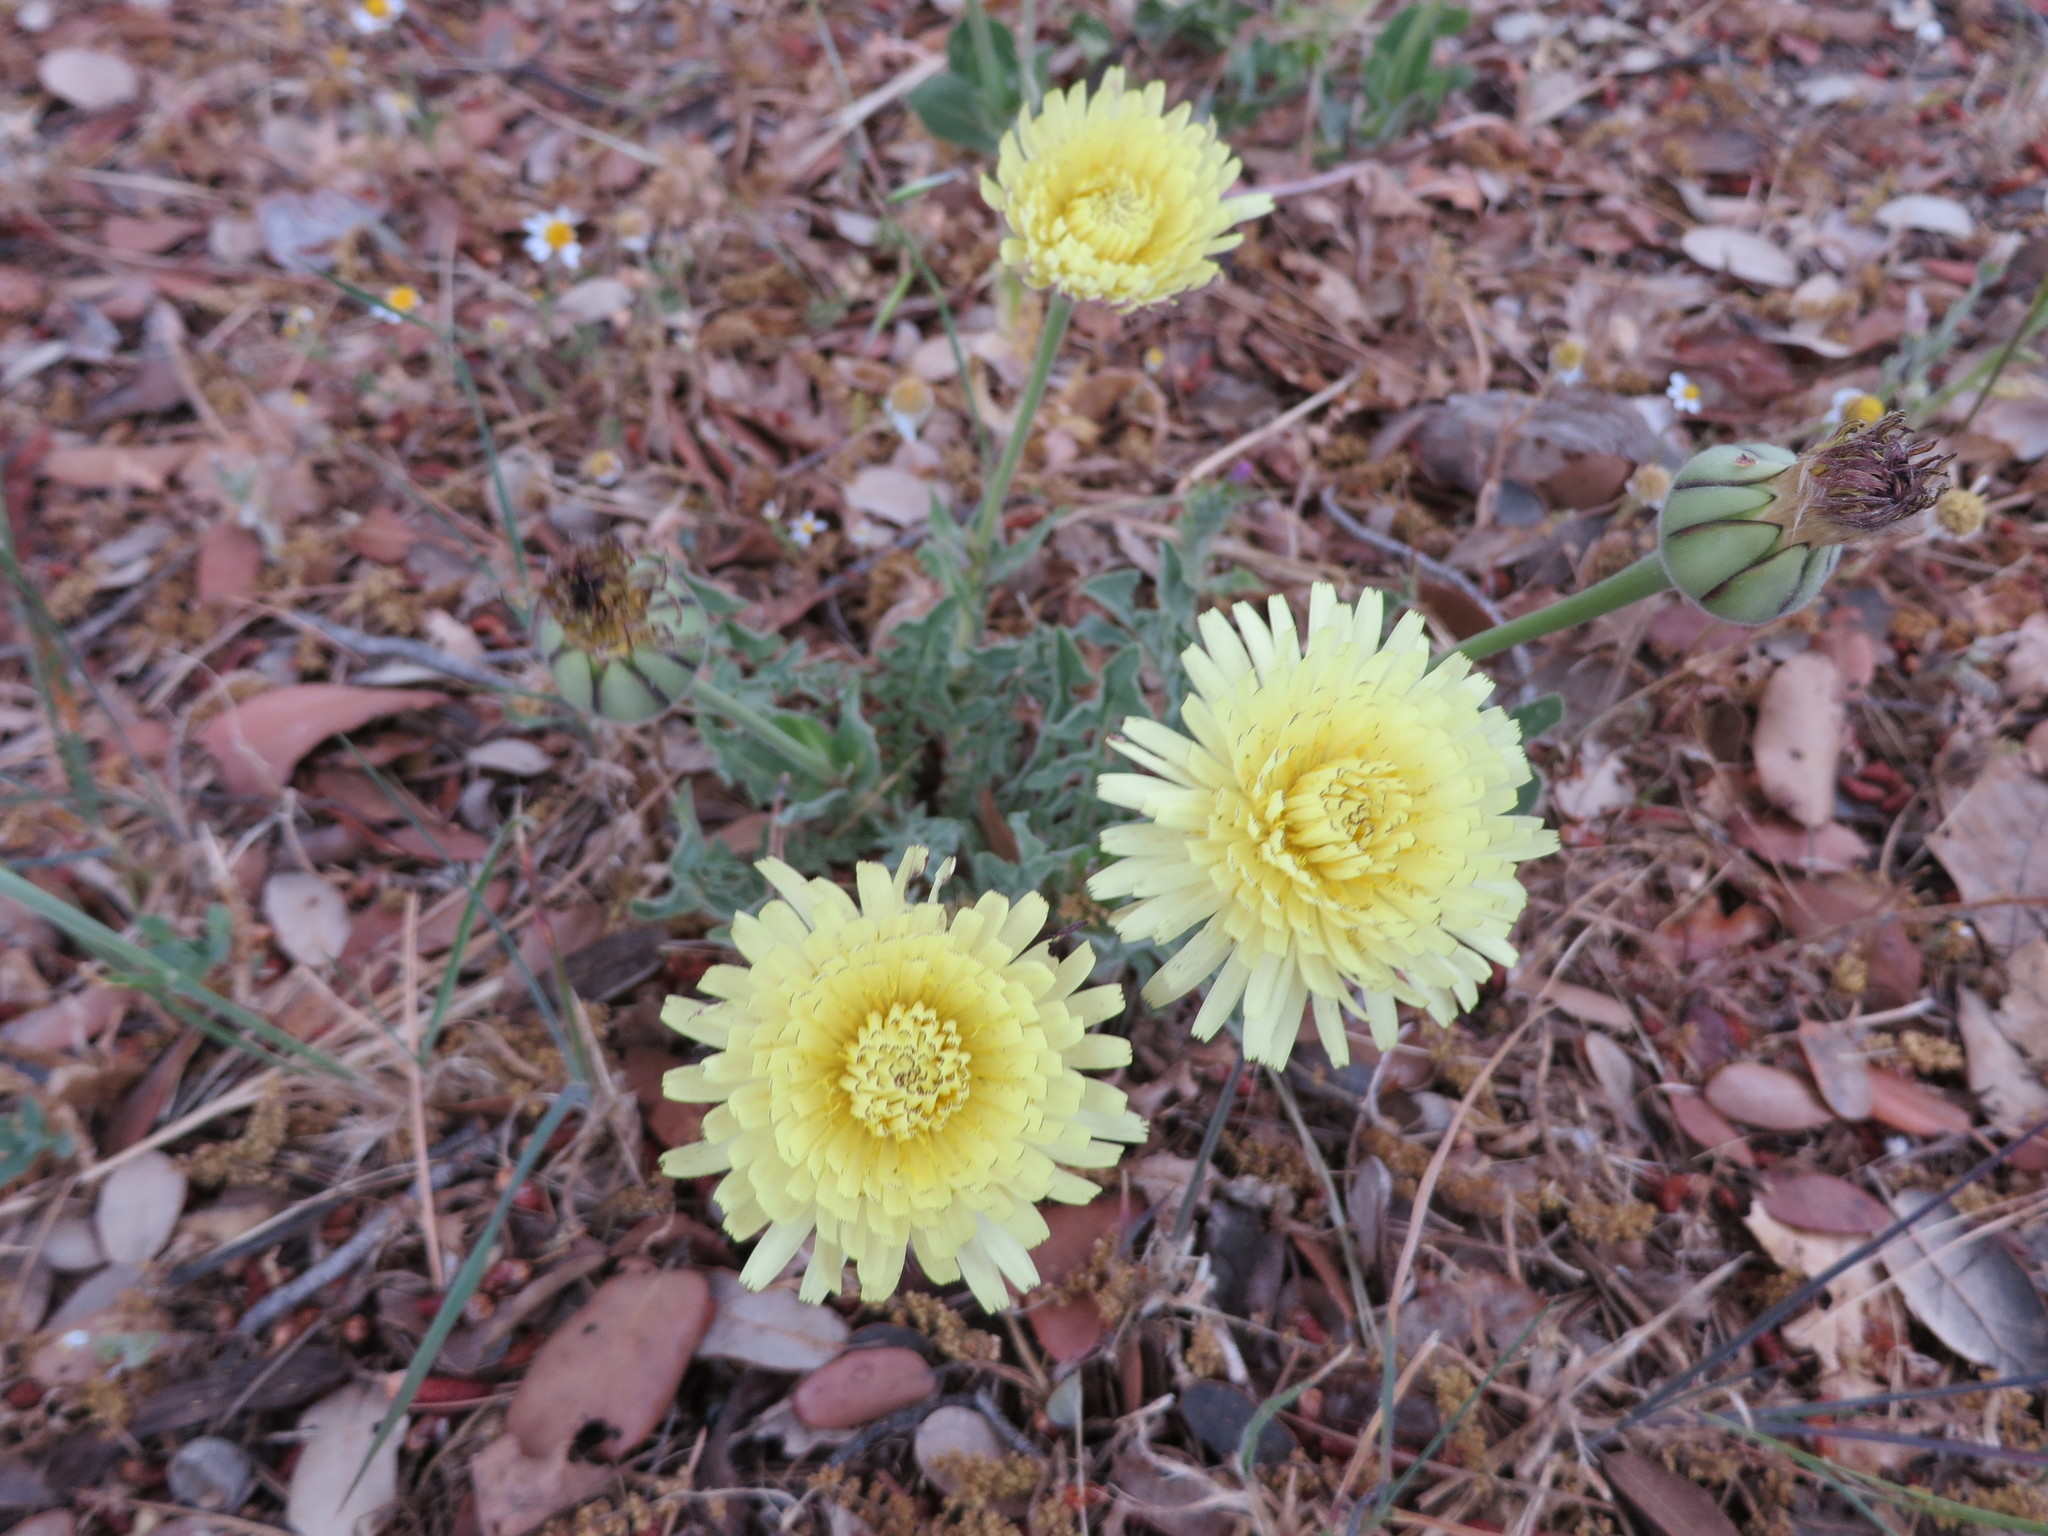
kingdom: Plantae
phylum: Tracheophyta
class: Magnoliopsida
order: Asterales
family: Asteraceae
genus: Urospermum
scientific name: Urospermum dalechampii
